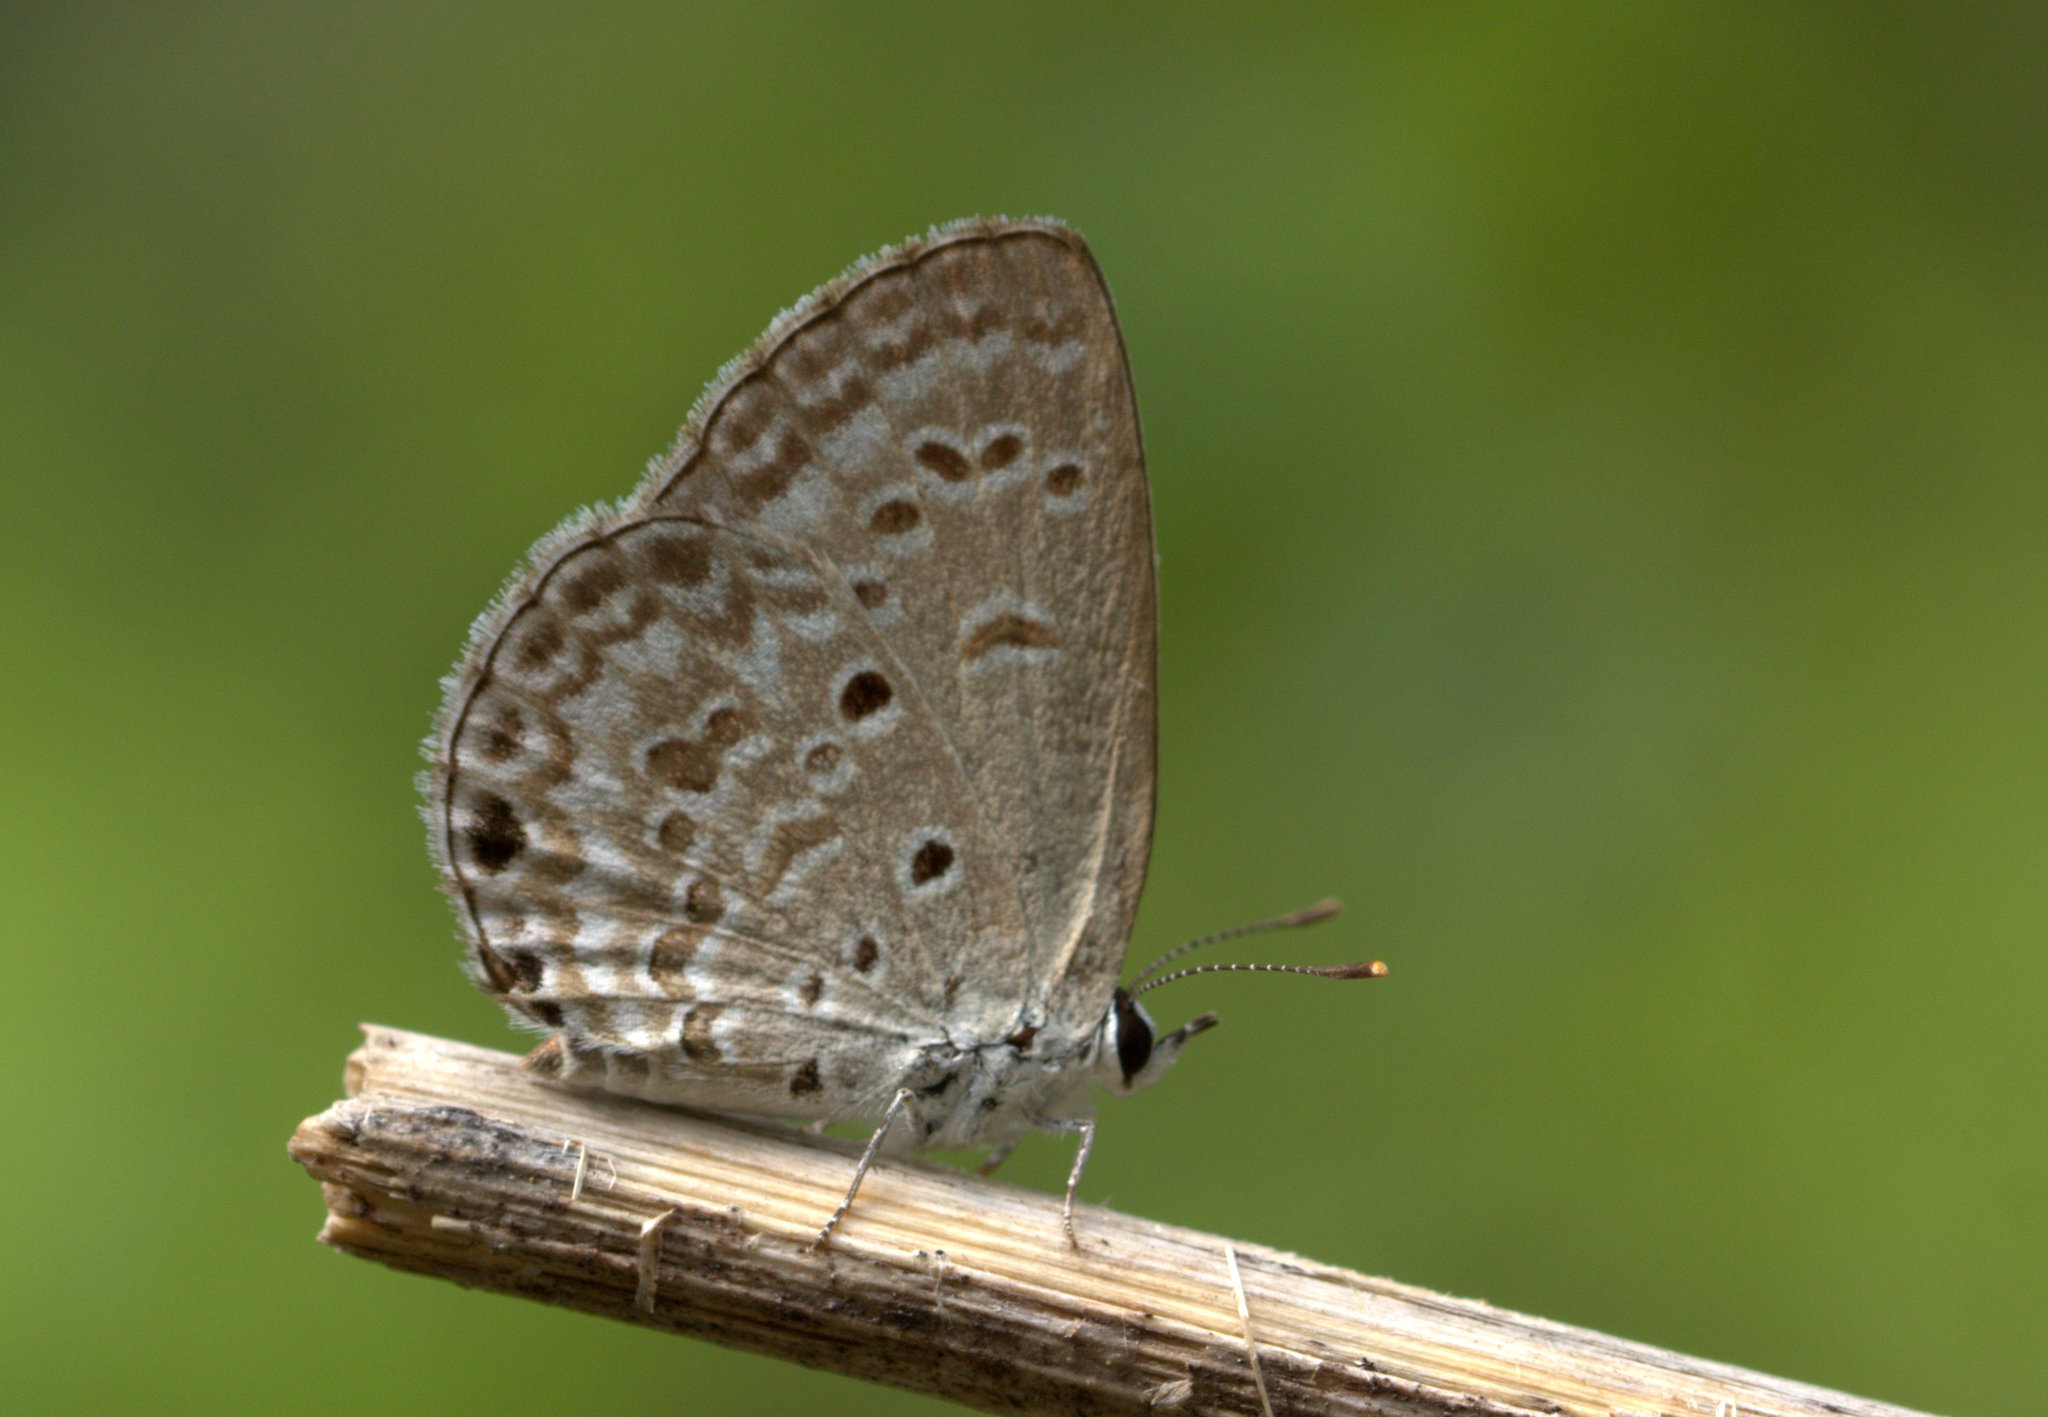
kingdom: Animalia
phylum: Arthropoda
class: Insecta
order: Lepidoptera
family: Lycaenidae
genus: Chilades
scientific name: Chilades laius
